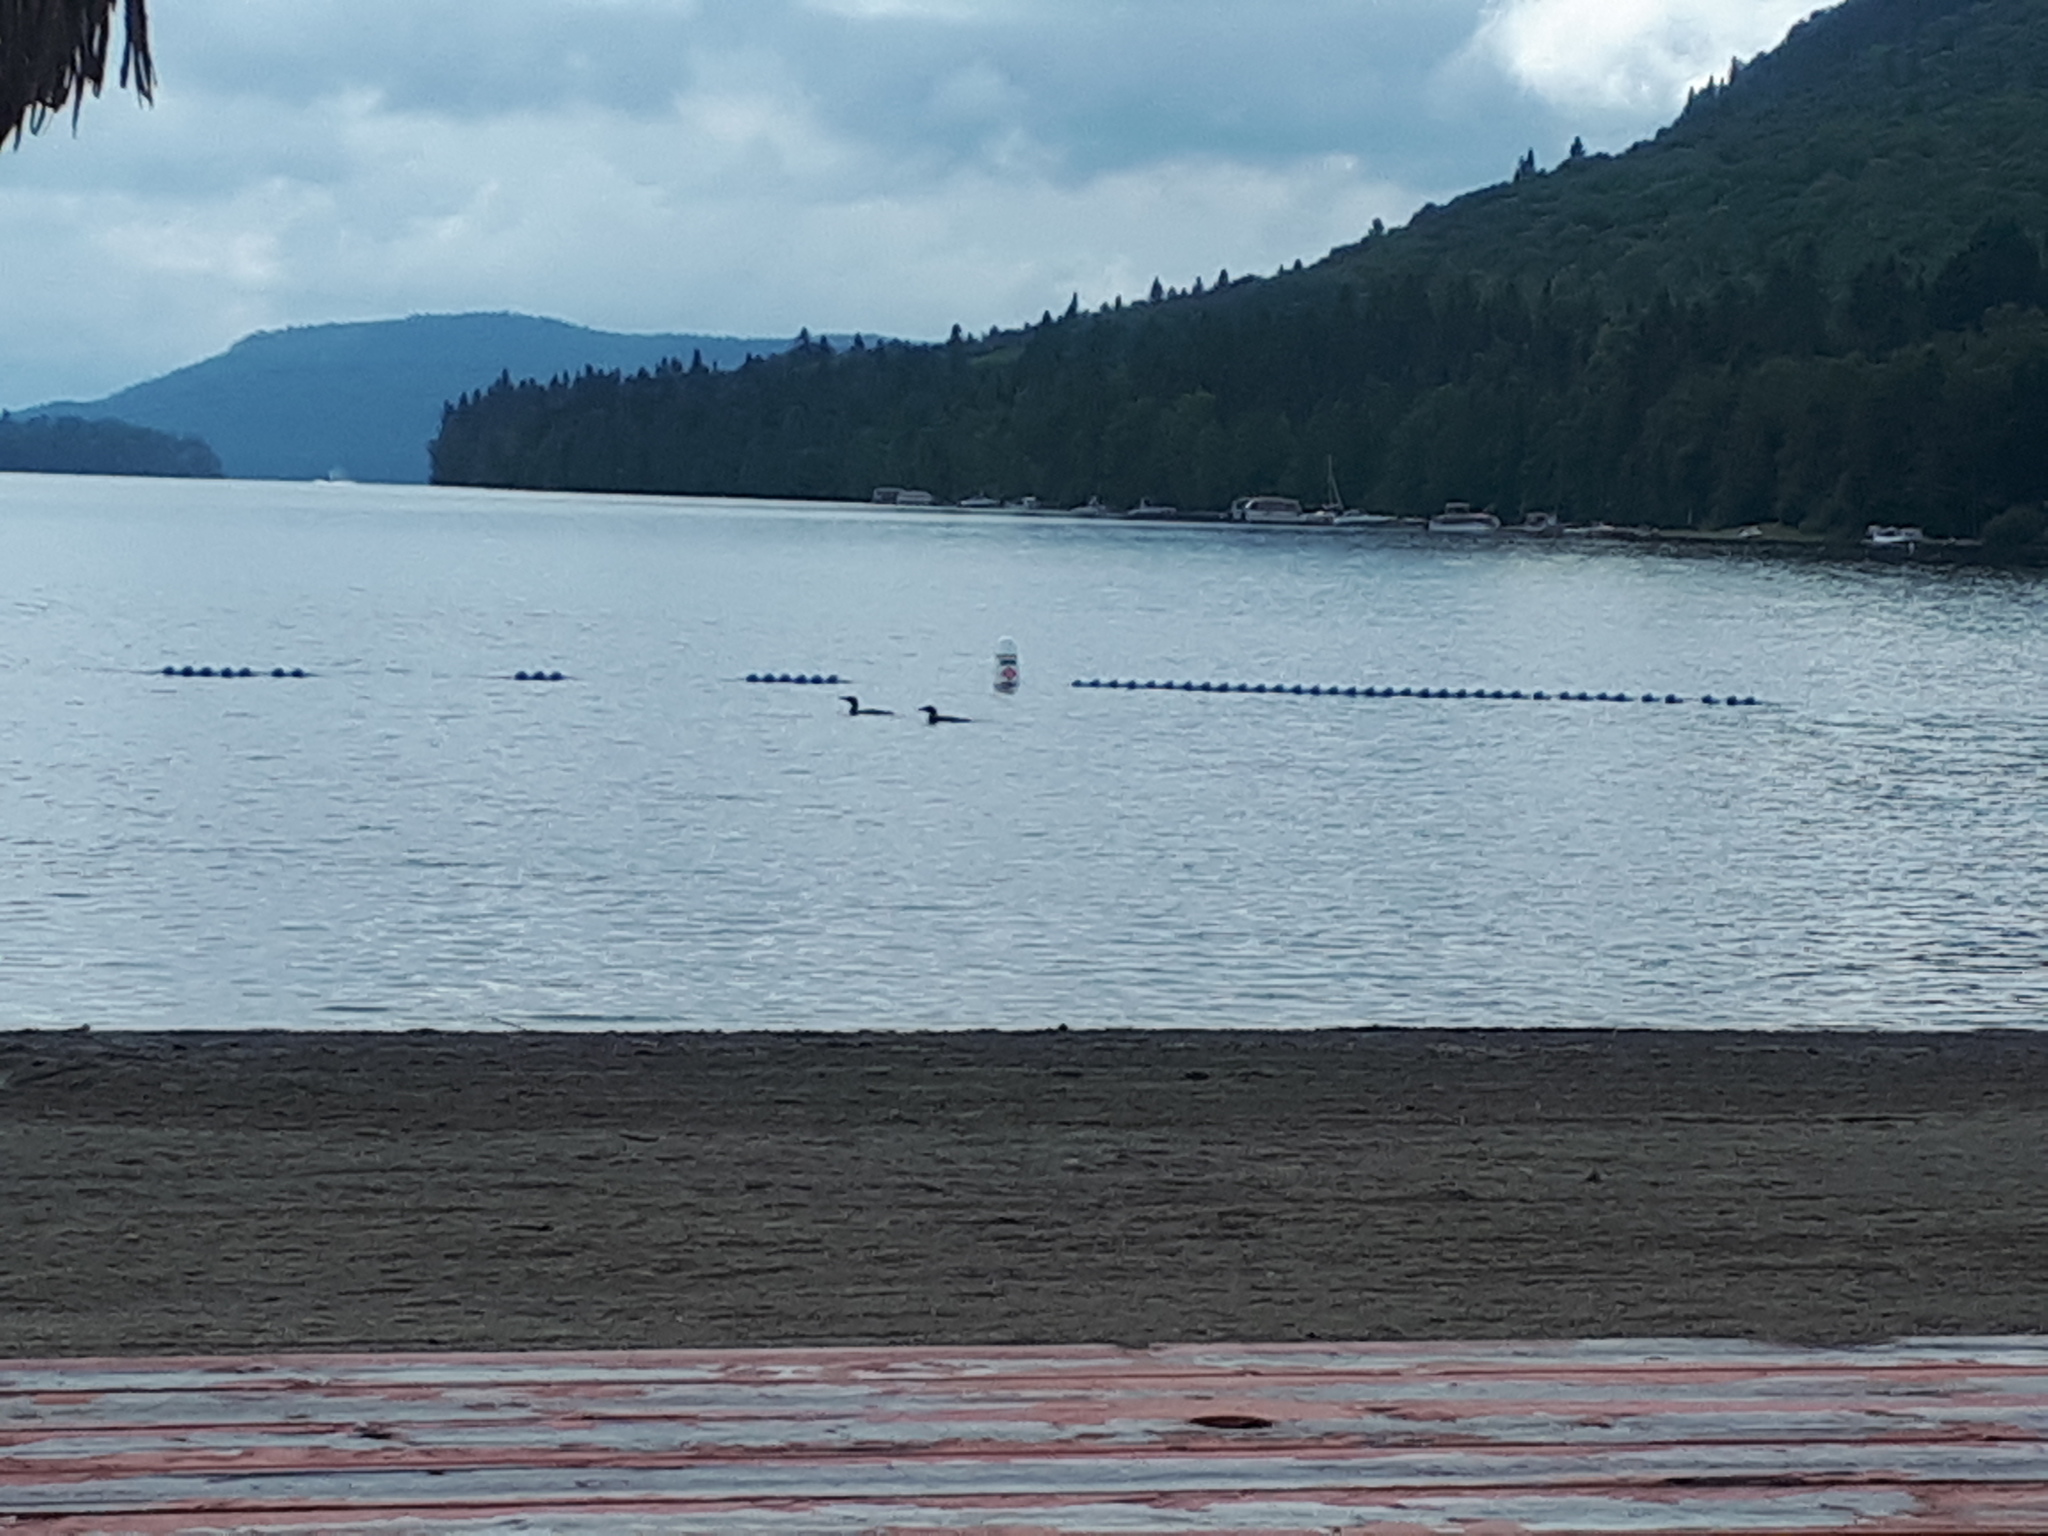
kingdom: Animalia
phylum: Chordata
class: Aves
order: Gaviiformes
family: Gaviidae
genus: Gavia
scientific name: Gavia immer
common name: Common loon
